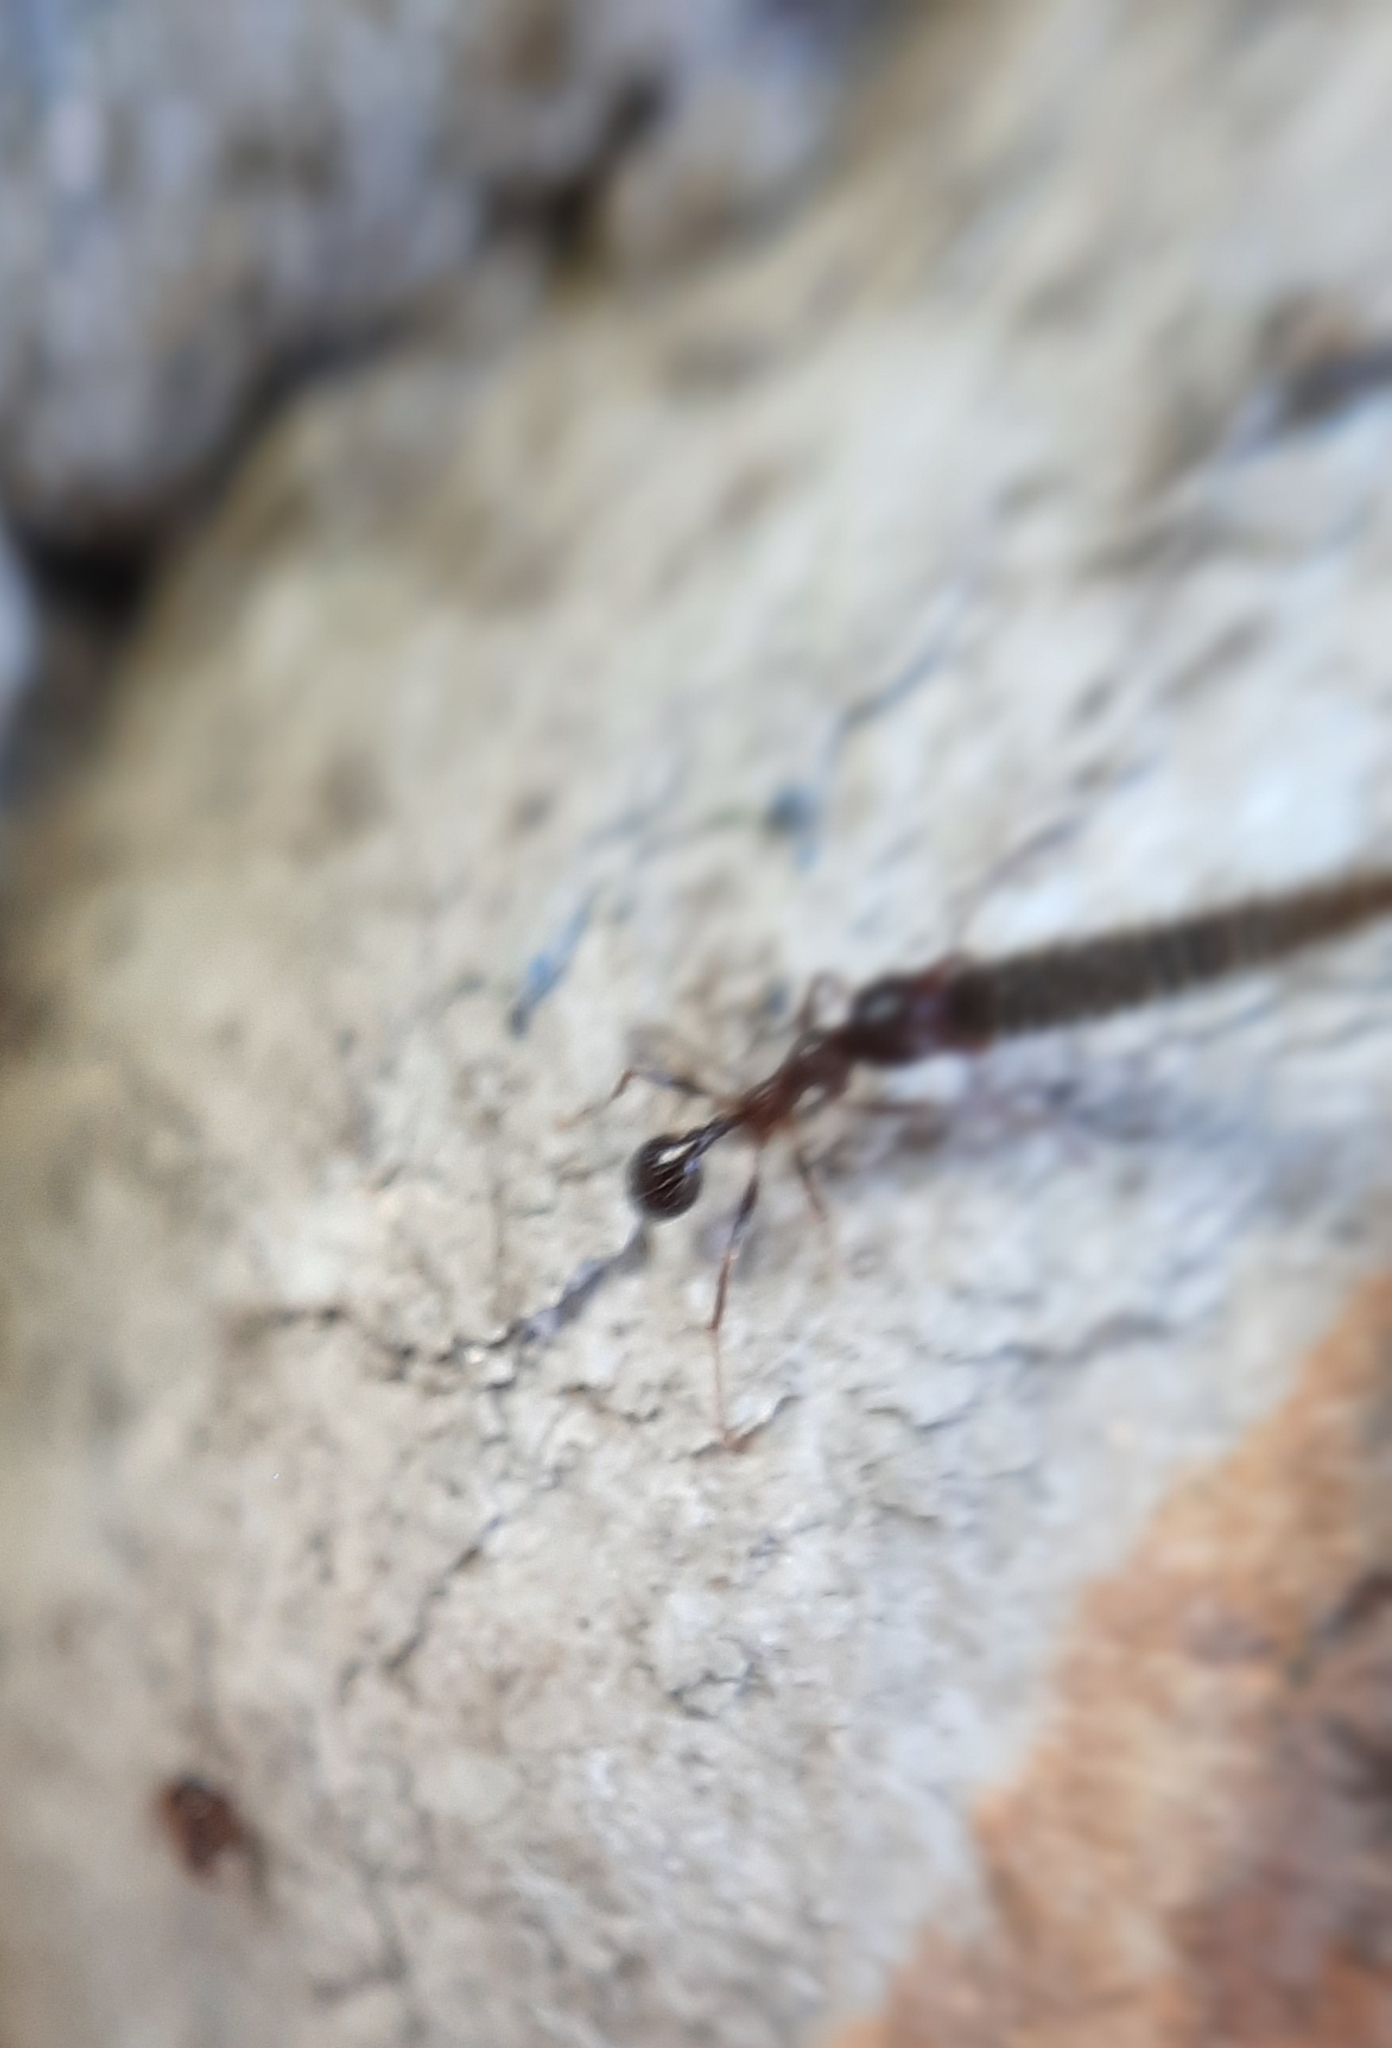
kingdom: Animalia
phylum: Arthropoda
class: Insecta
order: Hymenoptera
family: Formicidae
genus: Messor
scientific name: Messor structor
